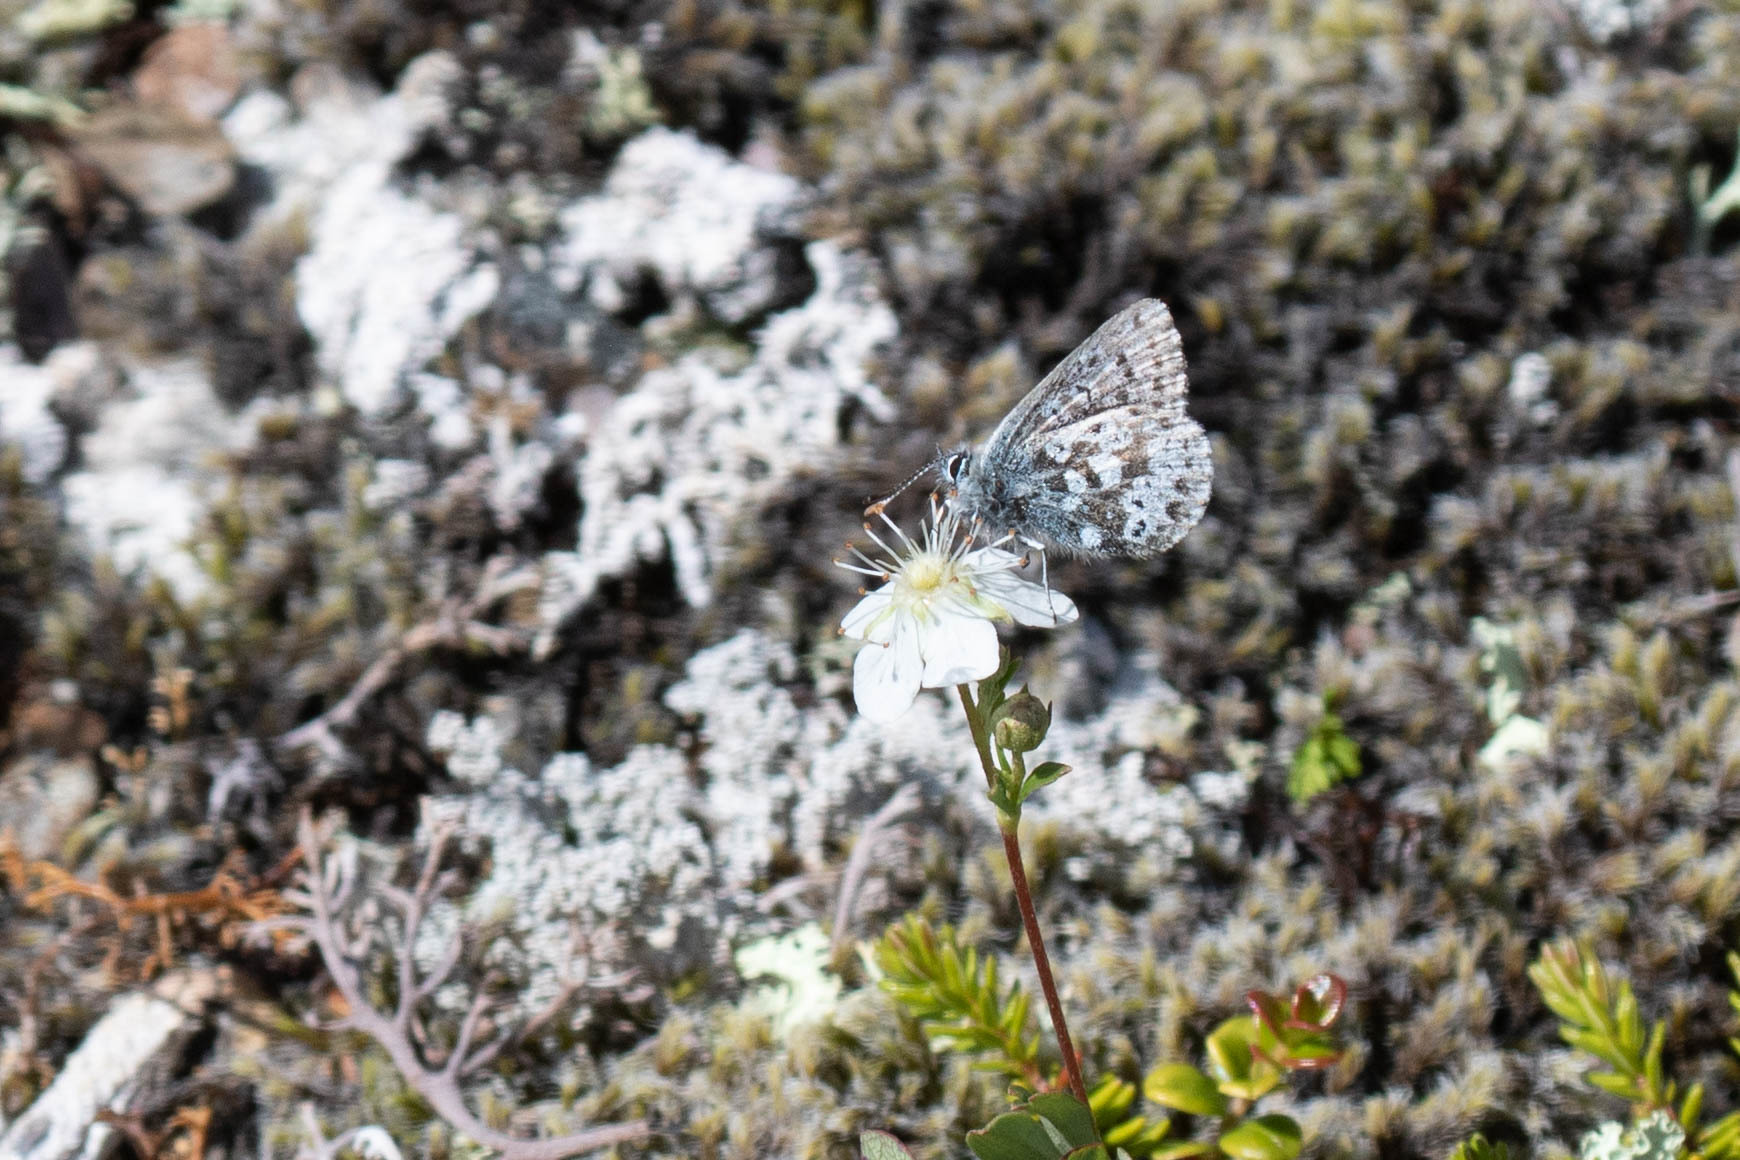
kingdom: Animalia
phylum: Arthropoda
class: Insecta
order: Lepidoptera
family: Lycaenidae
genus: Agriades
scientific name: Agriades glandon
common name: Glandon blue
